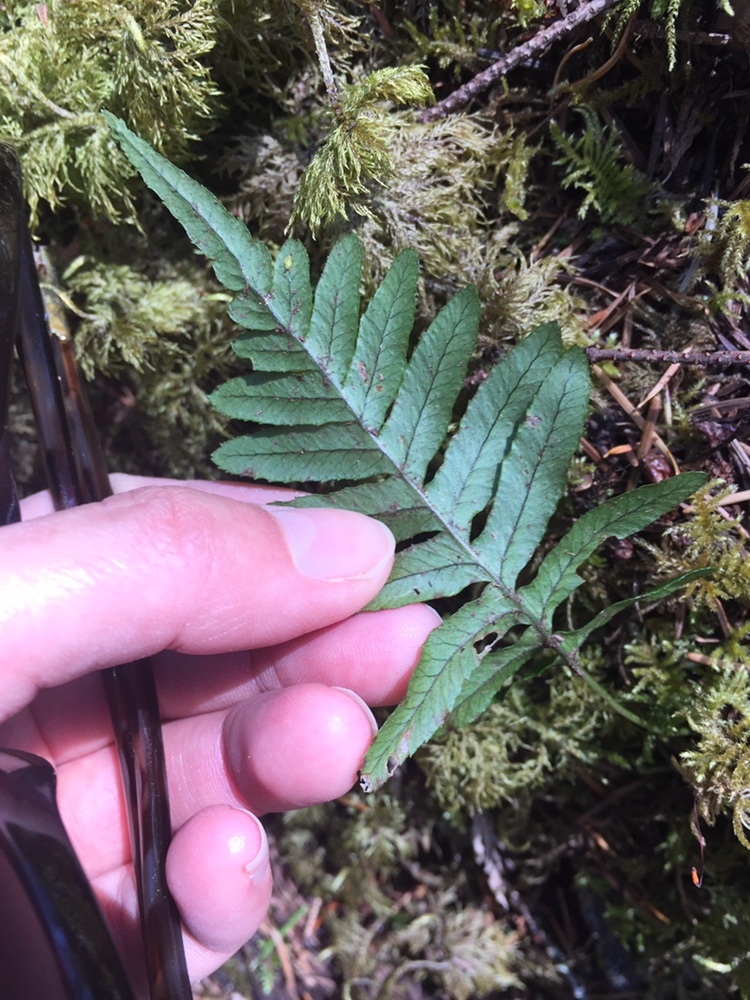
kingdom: Plantae
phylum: Tracheophyta
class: Polypodiopsida
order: Polypodiales
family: Polypodiaceae
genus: Polypodium
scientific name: Polypodium glycyrrhiza
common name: Licorice fern
